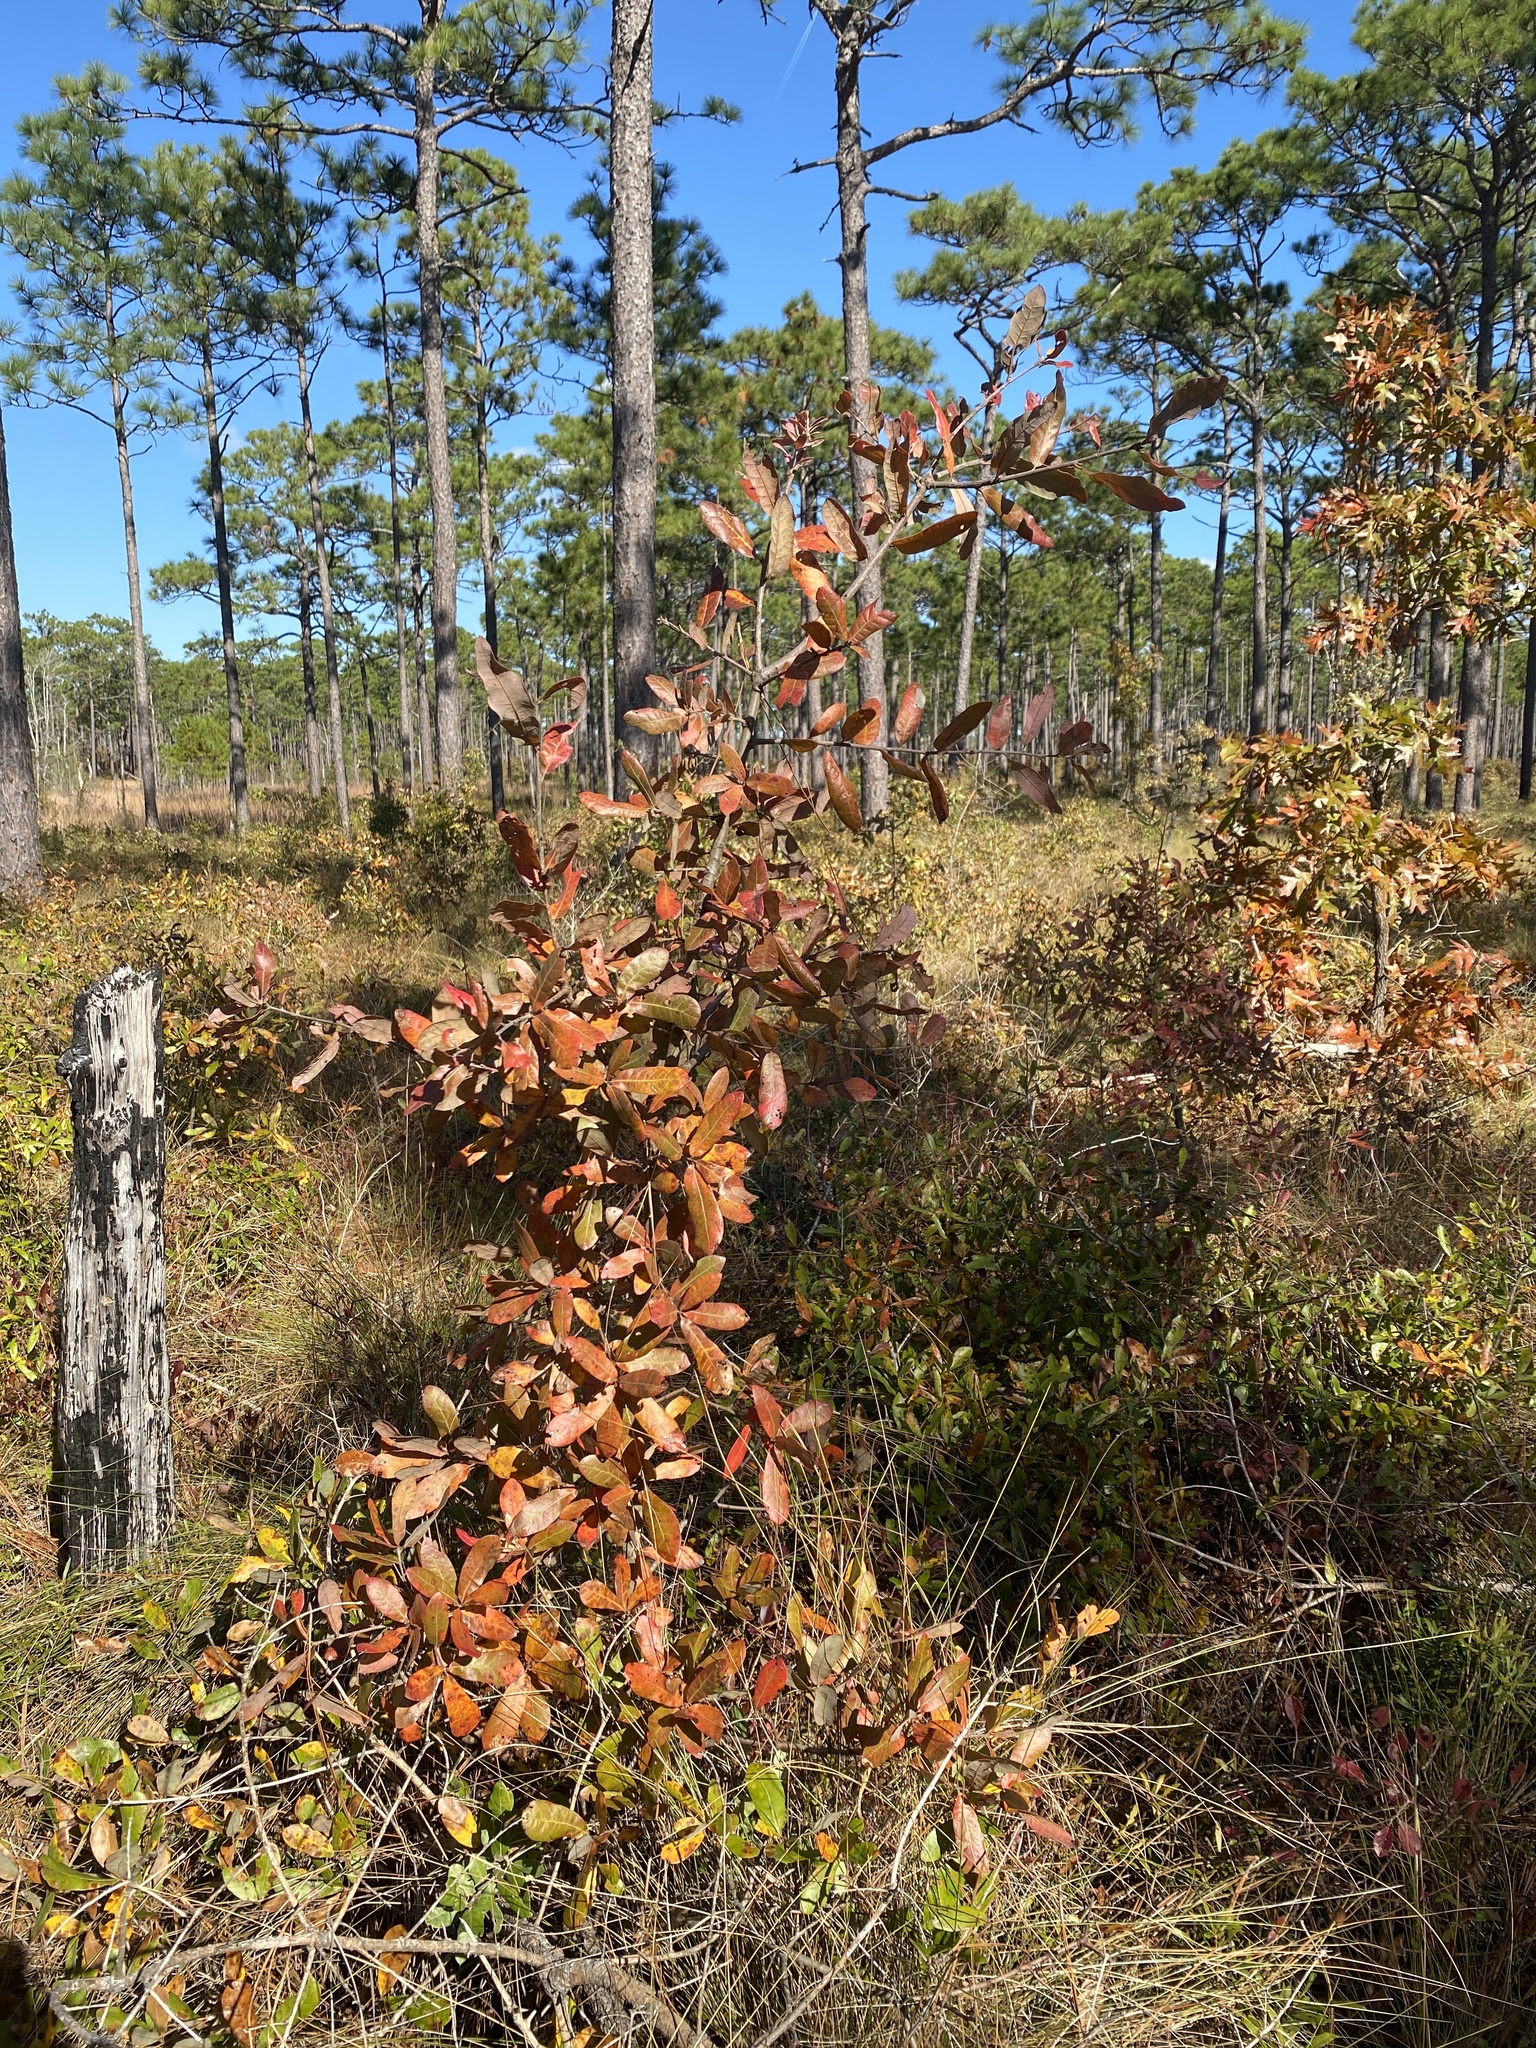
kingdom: Plantae
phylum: Tracheophyta
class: Magnoliopsida
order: Fagales
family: Fagaceae
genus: Quercus
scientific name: Quercus incana
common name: Bluejack oak
